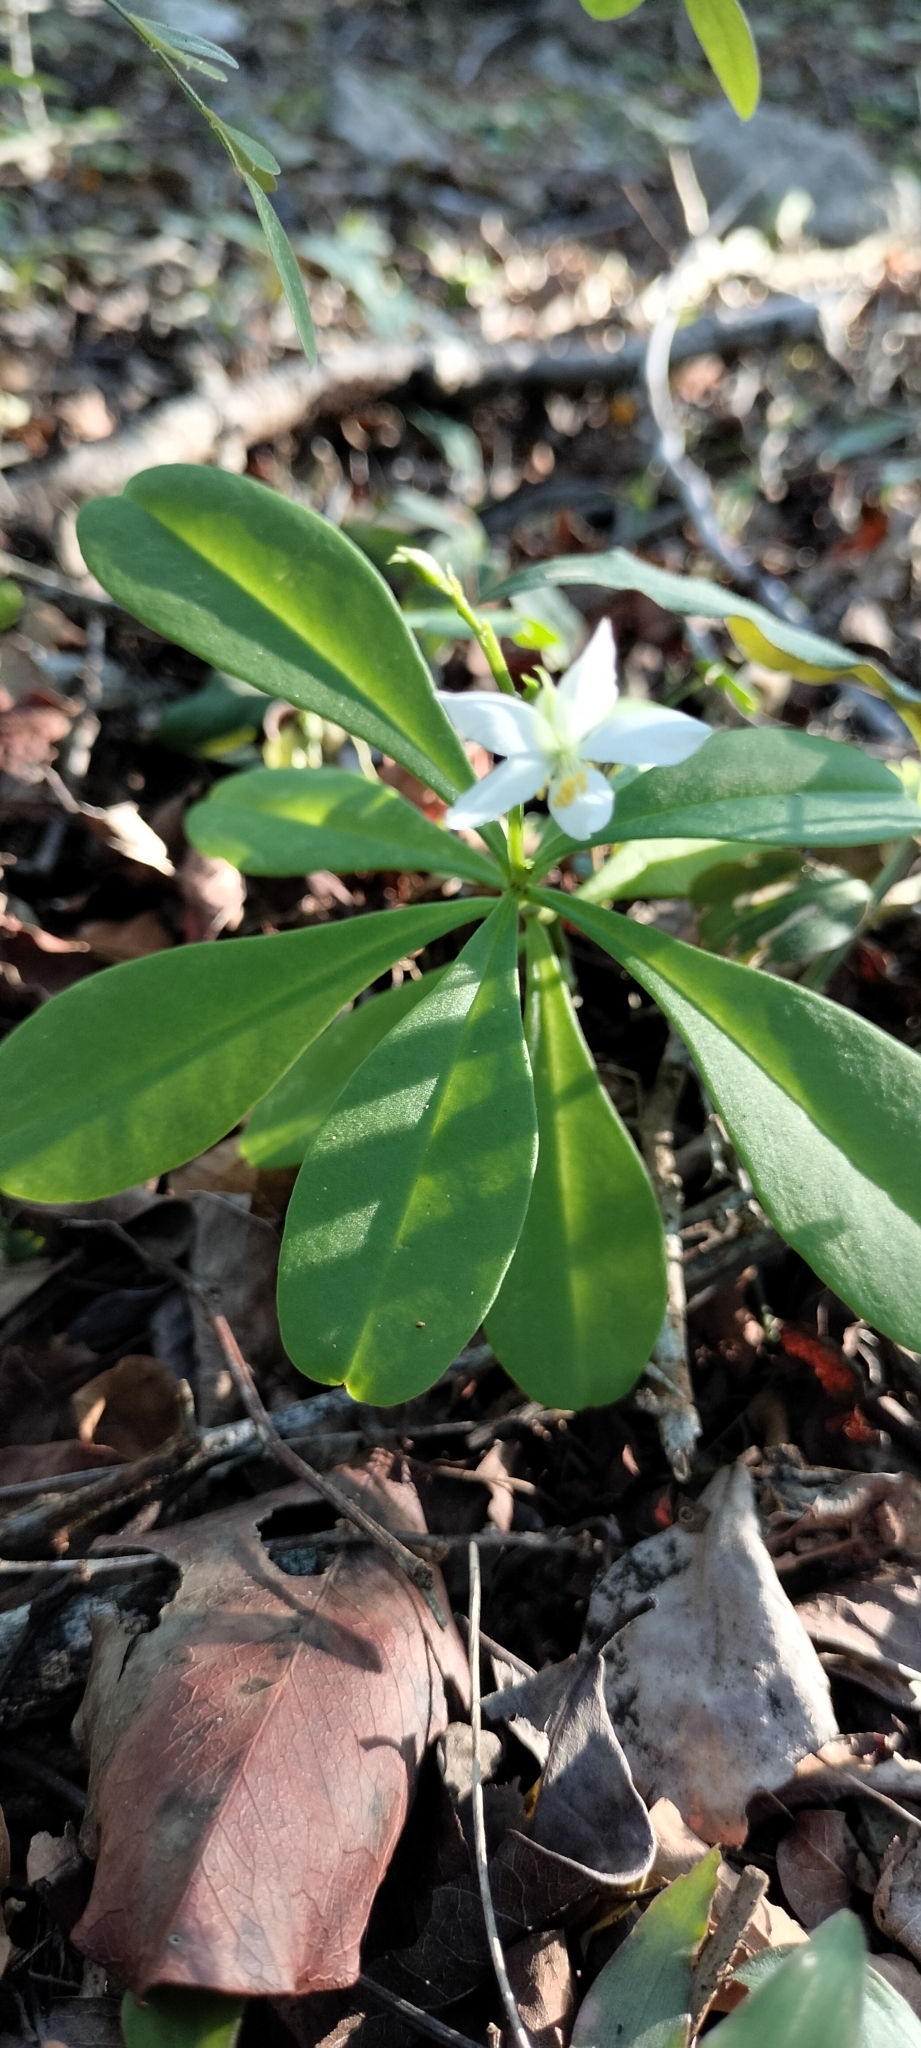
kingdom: Plantae
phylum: Tracheophyta
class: Magnoliopsida
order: Caryophyllales
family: Talinaceae
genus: Talinum
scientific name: Talinum fruticosum
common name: Verdolaga-francesa
